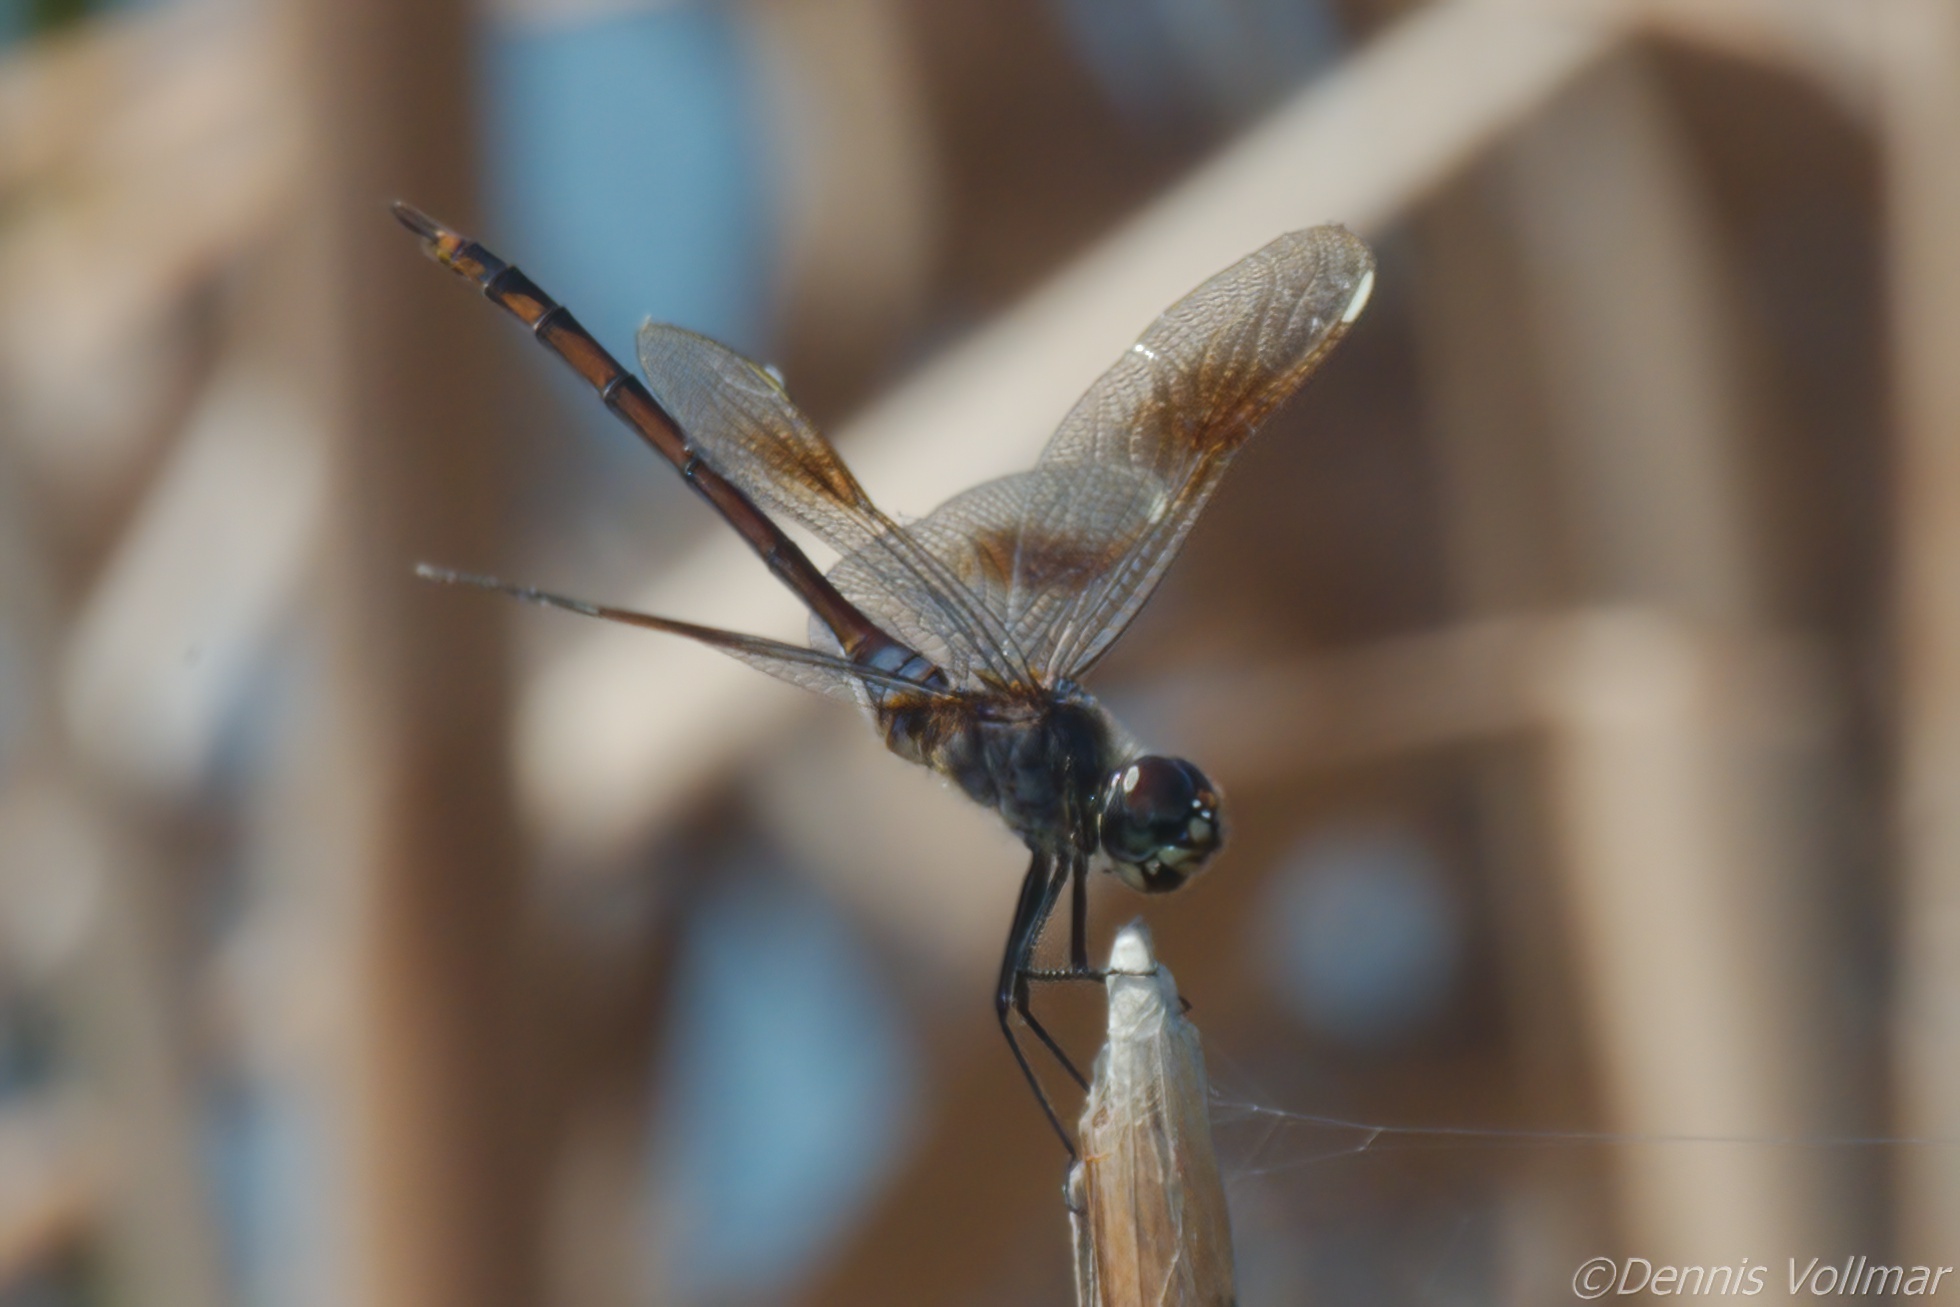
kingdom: Animalia
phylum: Arthropoda
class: Insecta
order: Odonata
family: Libellulidae
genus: Brachymesia
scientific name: Brachymesia gravida
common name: Four-spotted pennant
